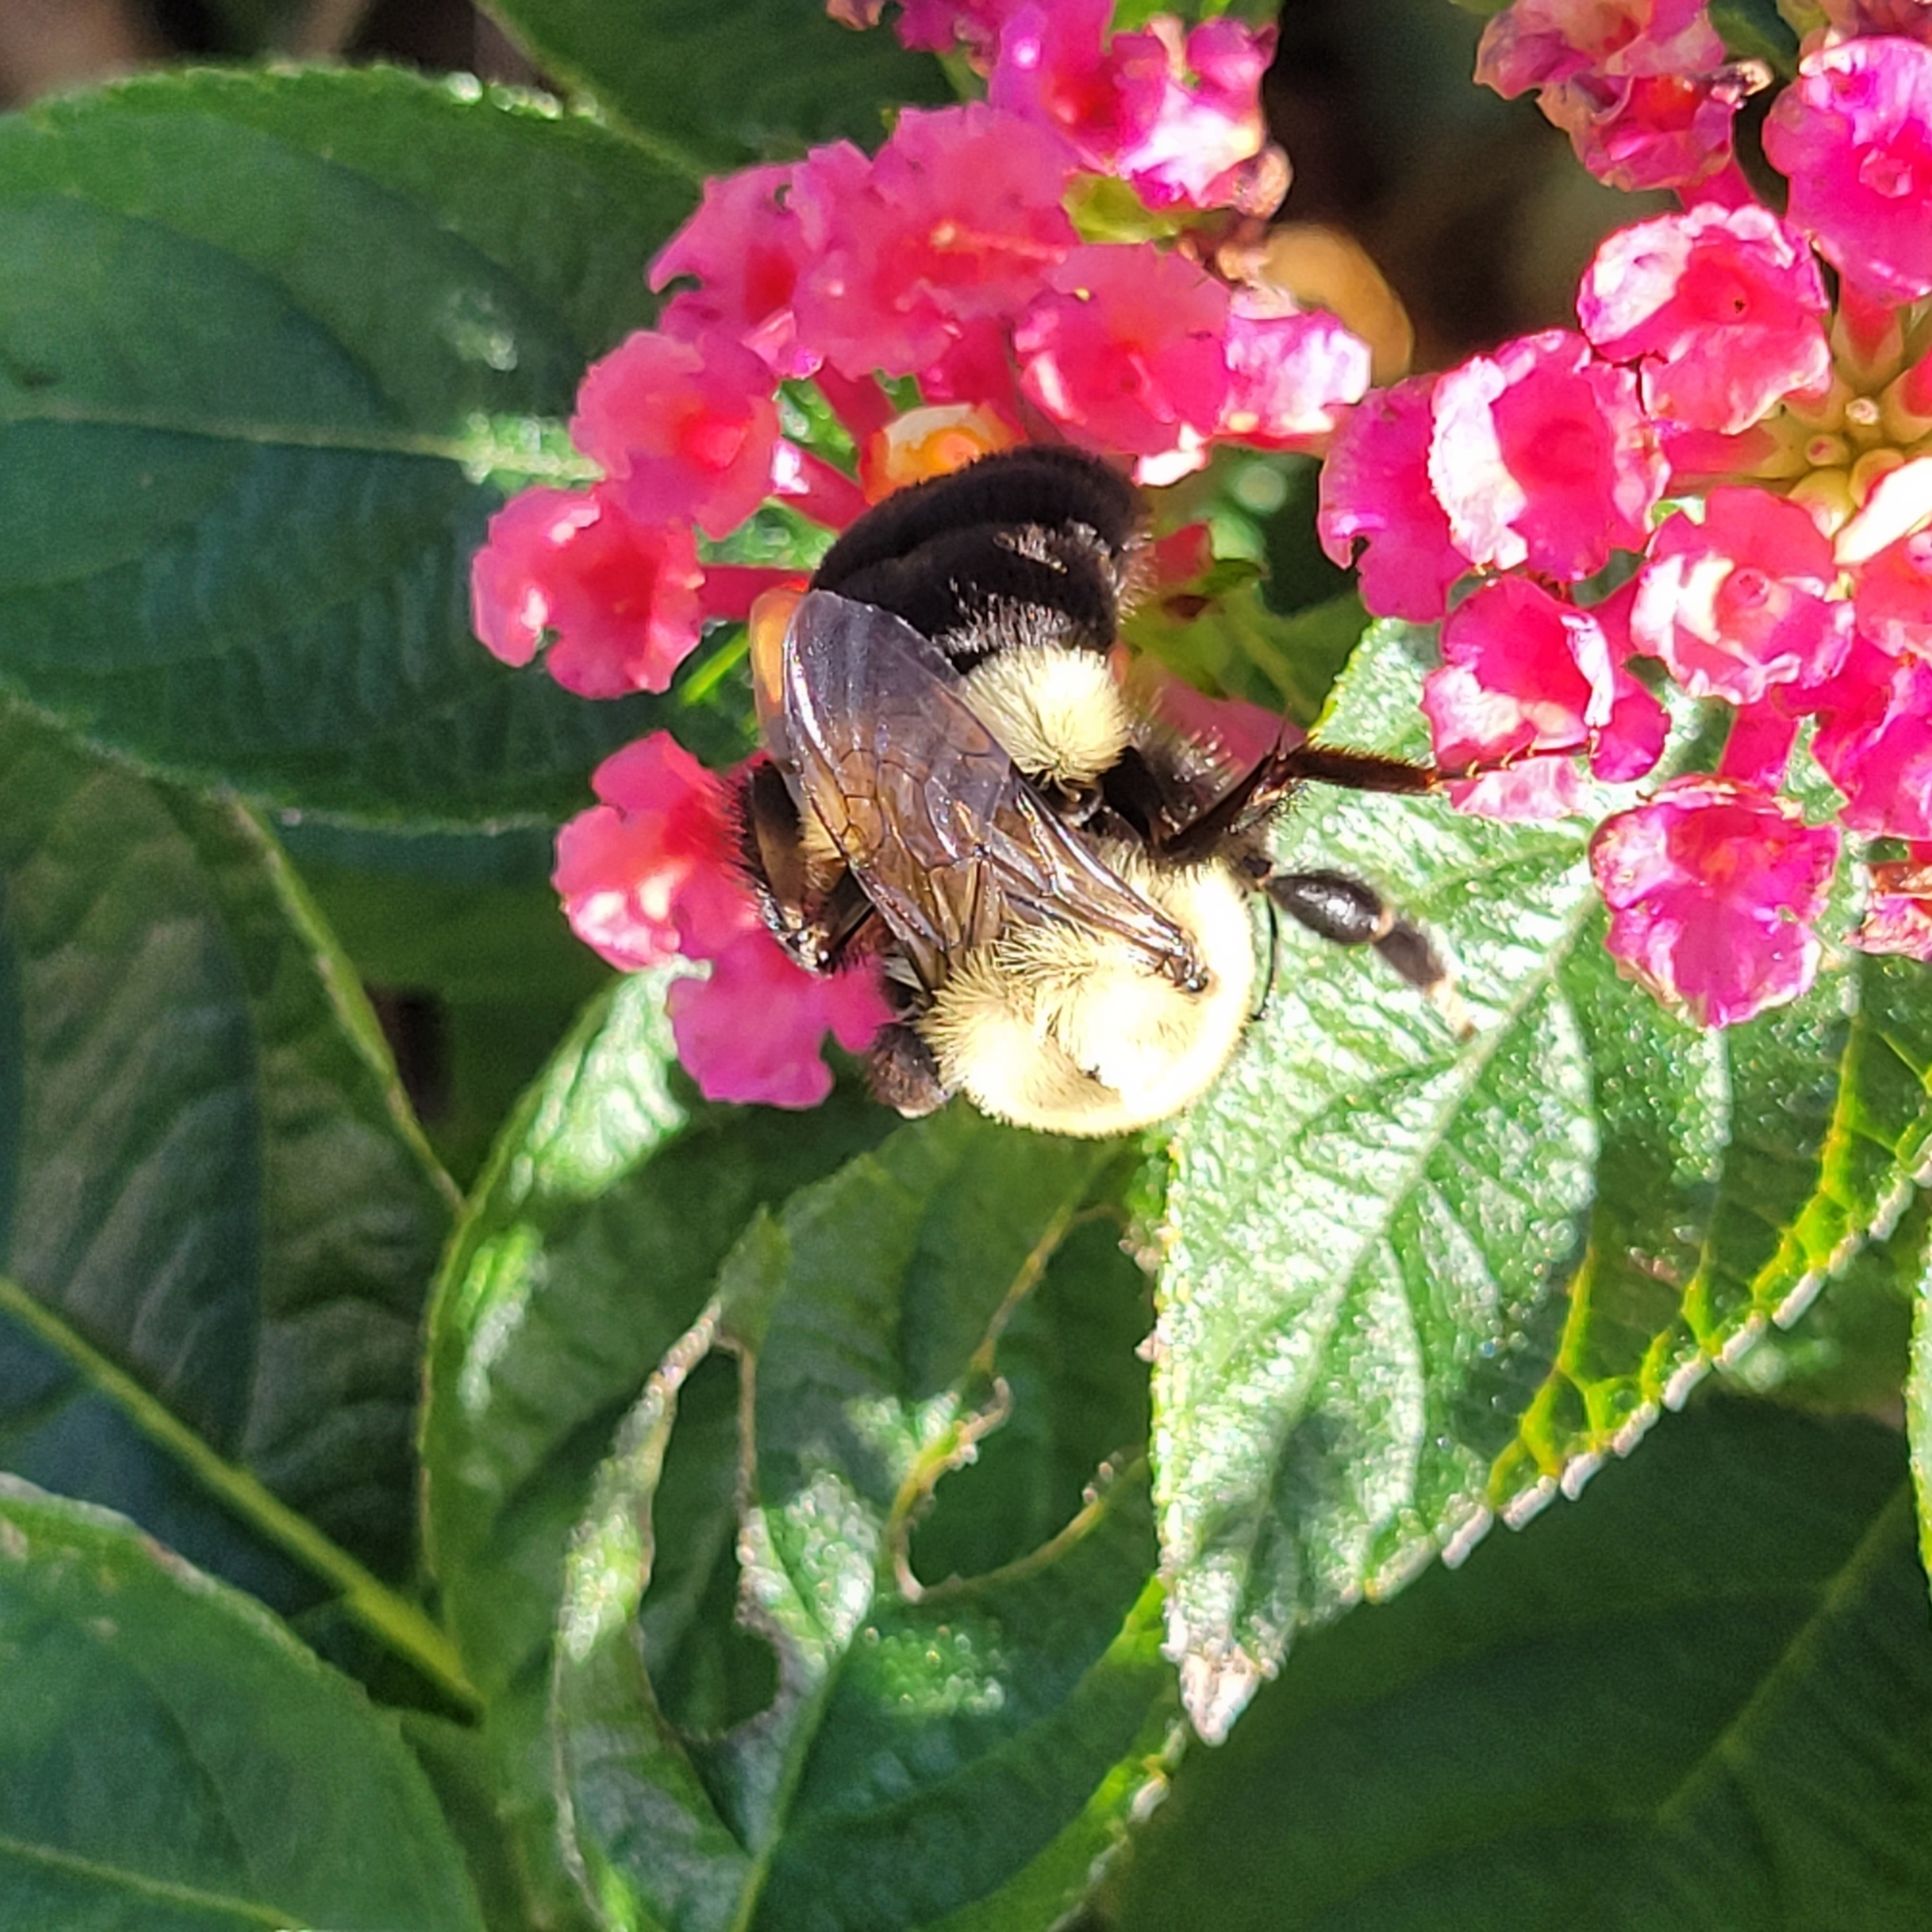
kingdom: Animalia
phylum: Arthropoda
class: Insecta
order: Hymenoptera
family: Apidae
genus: Bombus
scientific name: Bombus impatiens
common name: Common eastern bumble bee
